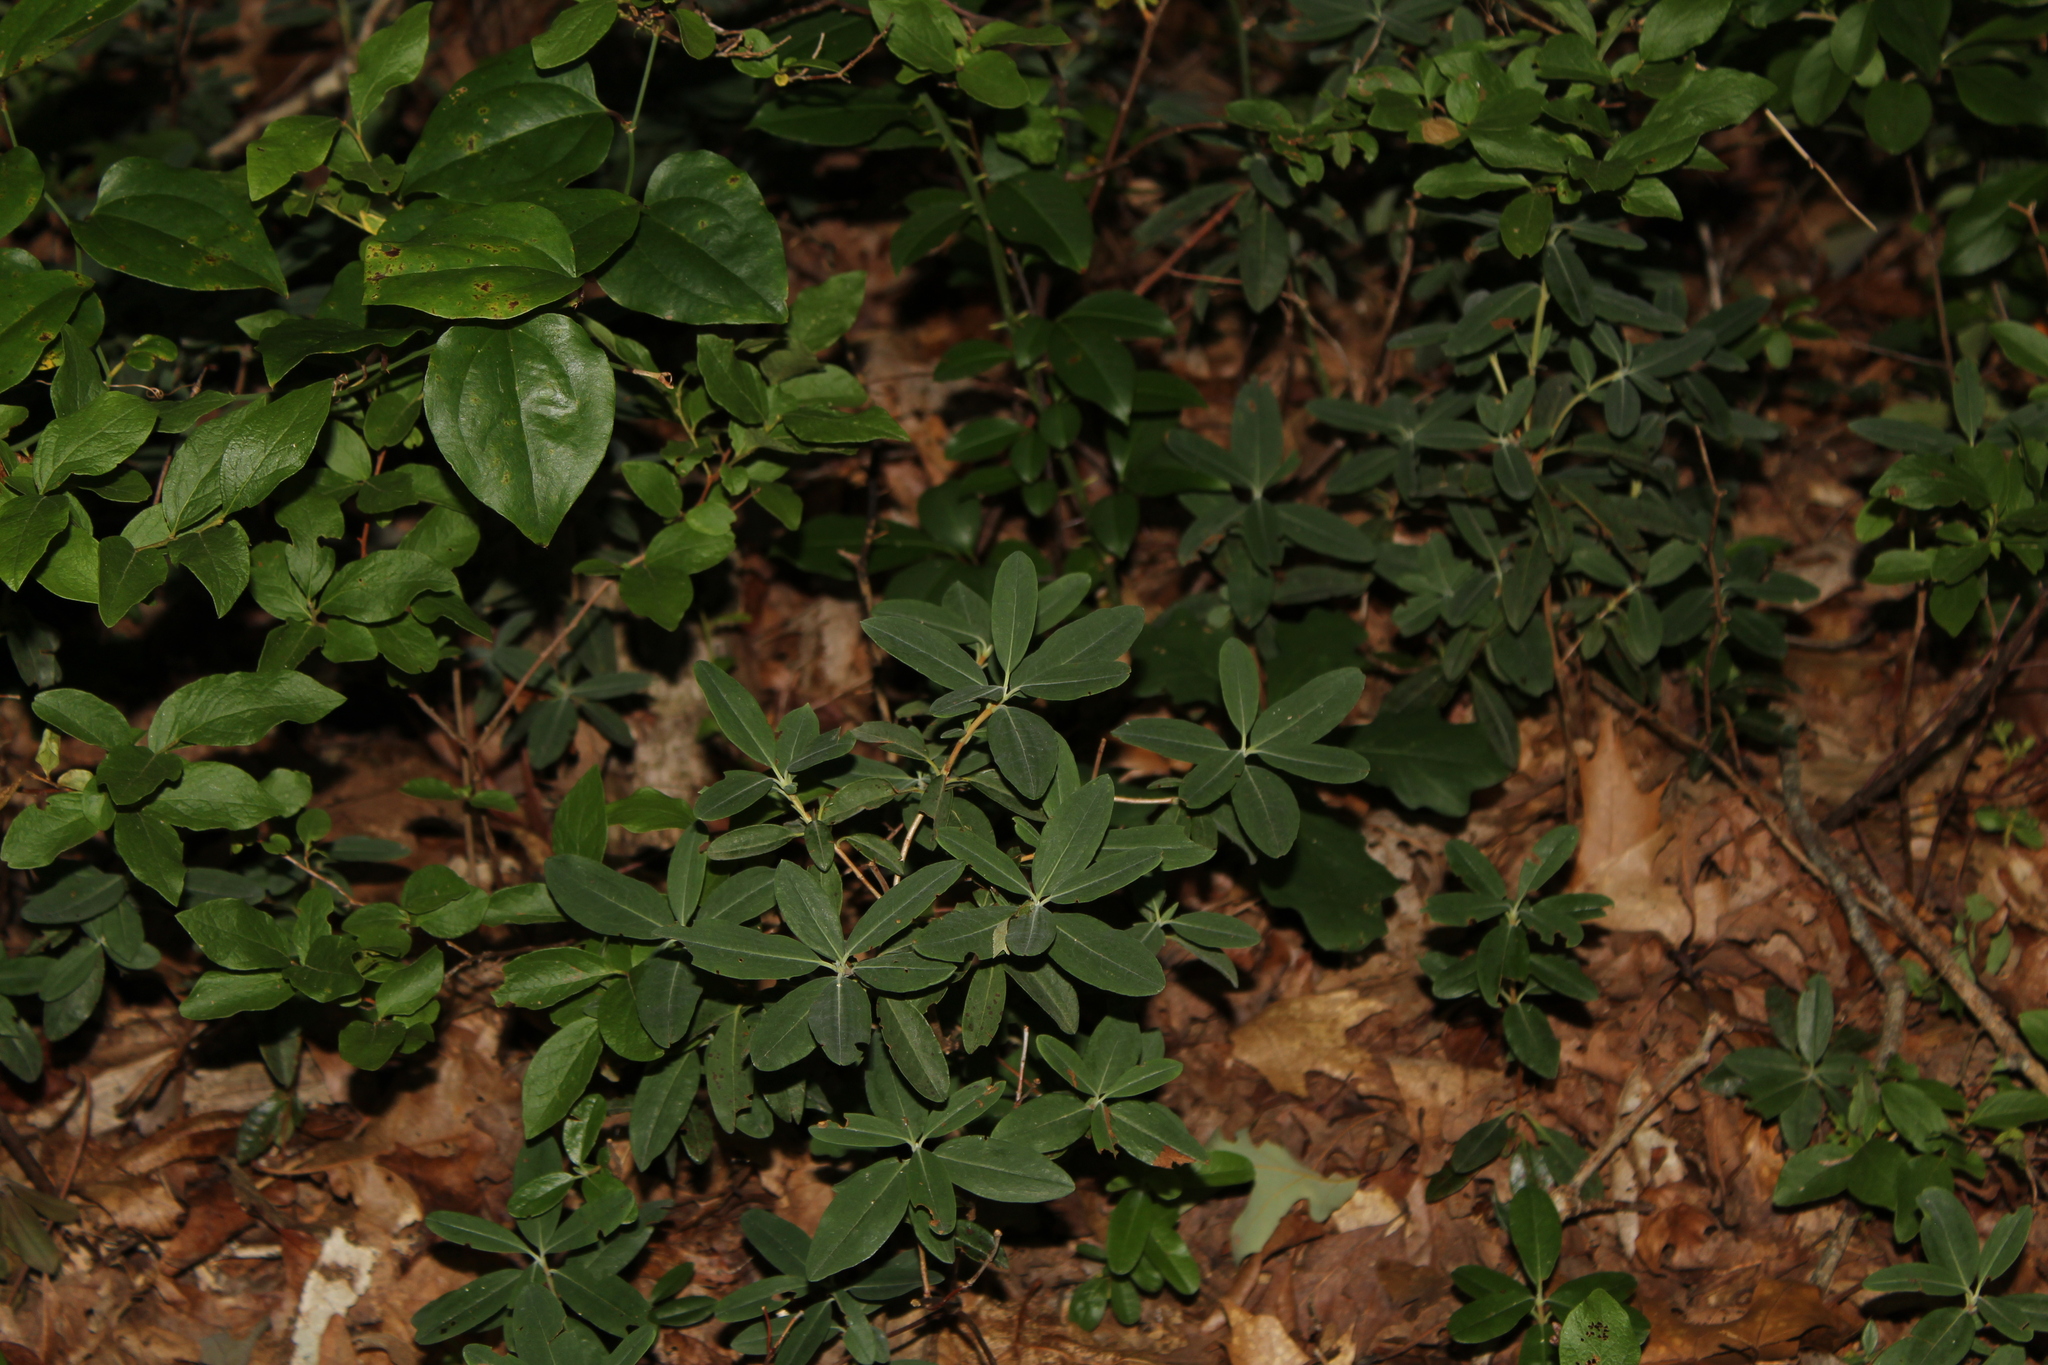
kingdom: Plantae
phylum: Tracheophyta
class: Magnoliopsida
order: Ericales
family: Ericaceae
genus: Kalmia
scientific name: Kalmia angustifolia
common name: Sheep-laurel
